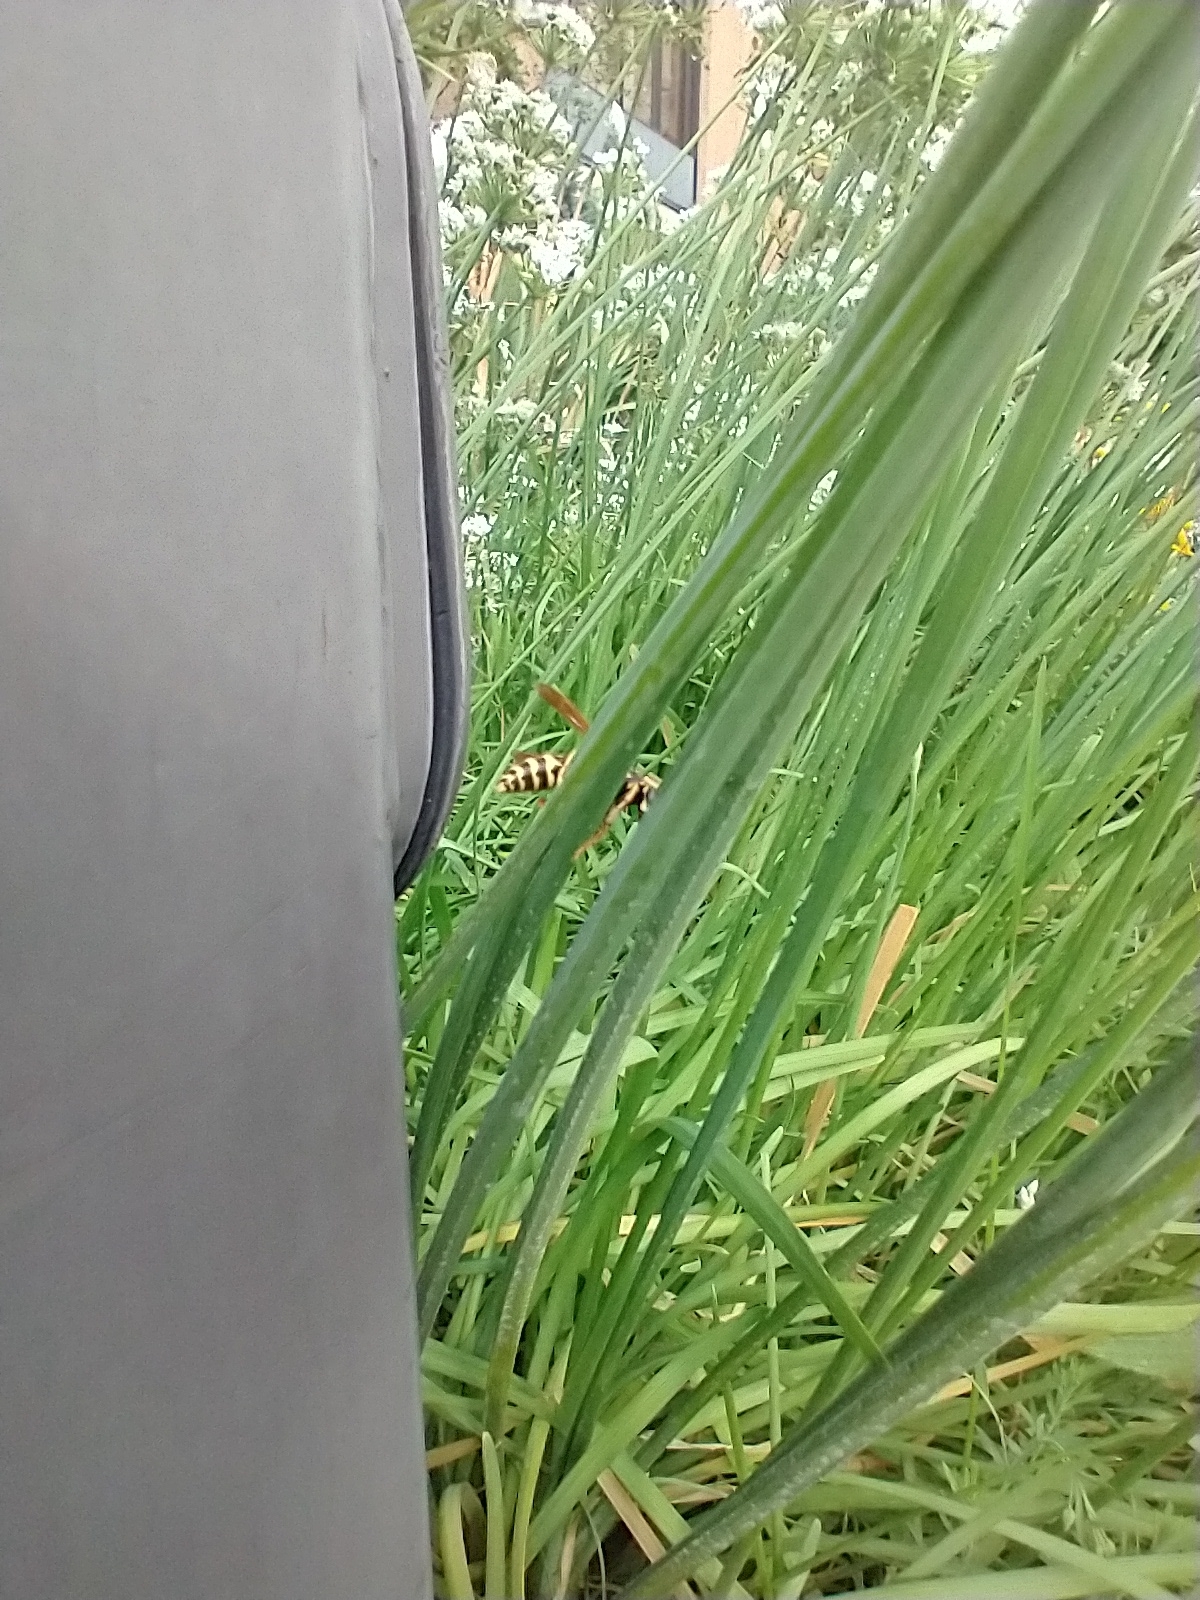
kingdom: Animalia
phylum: Arthropoda
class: Insecta
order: Hymenoptera
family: Eumenidae
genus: Polistes
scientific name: Polistes dominula
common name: Paper wasp
